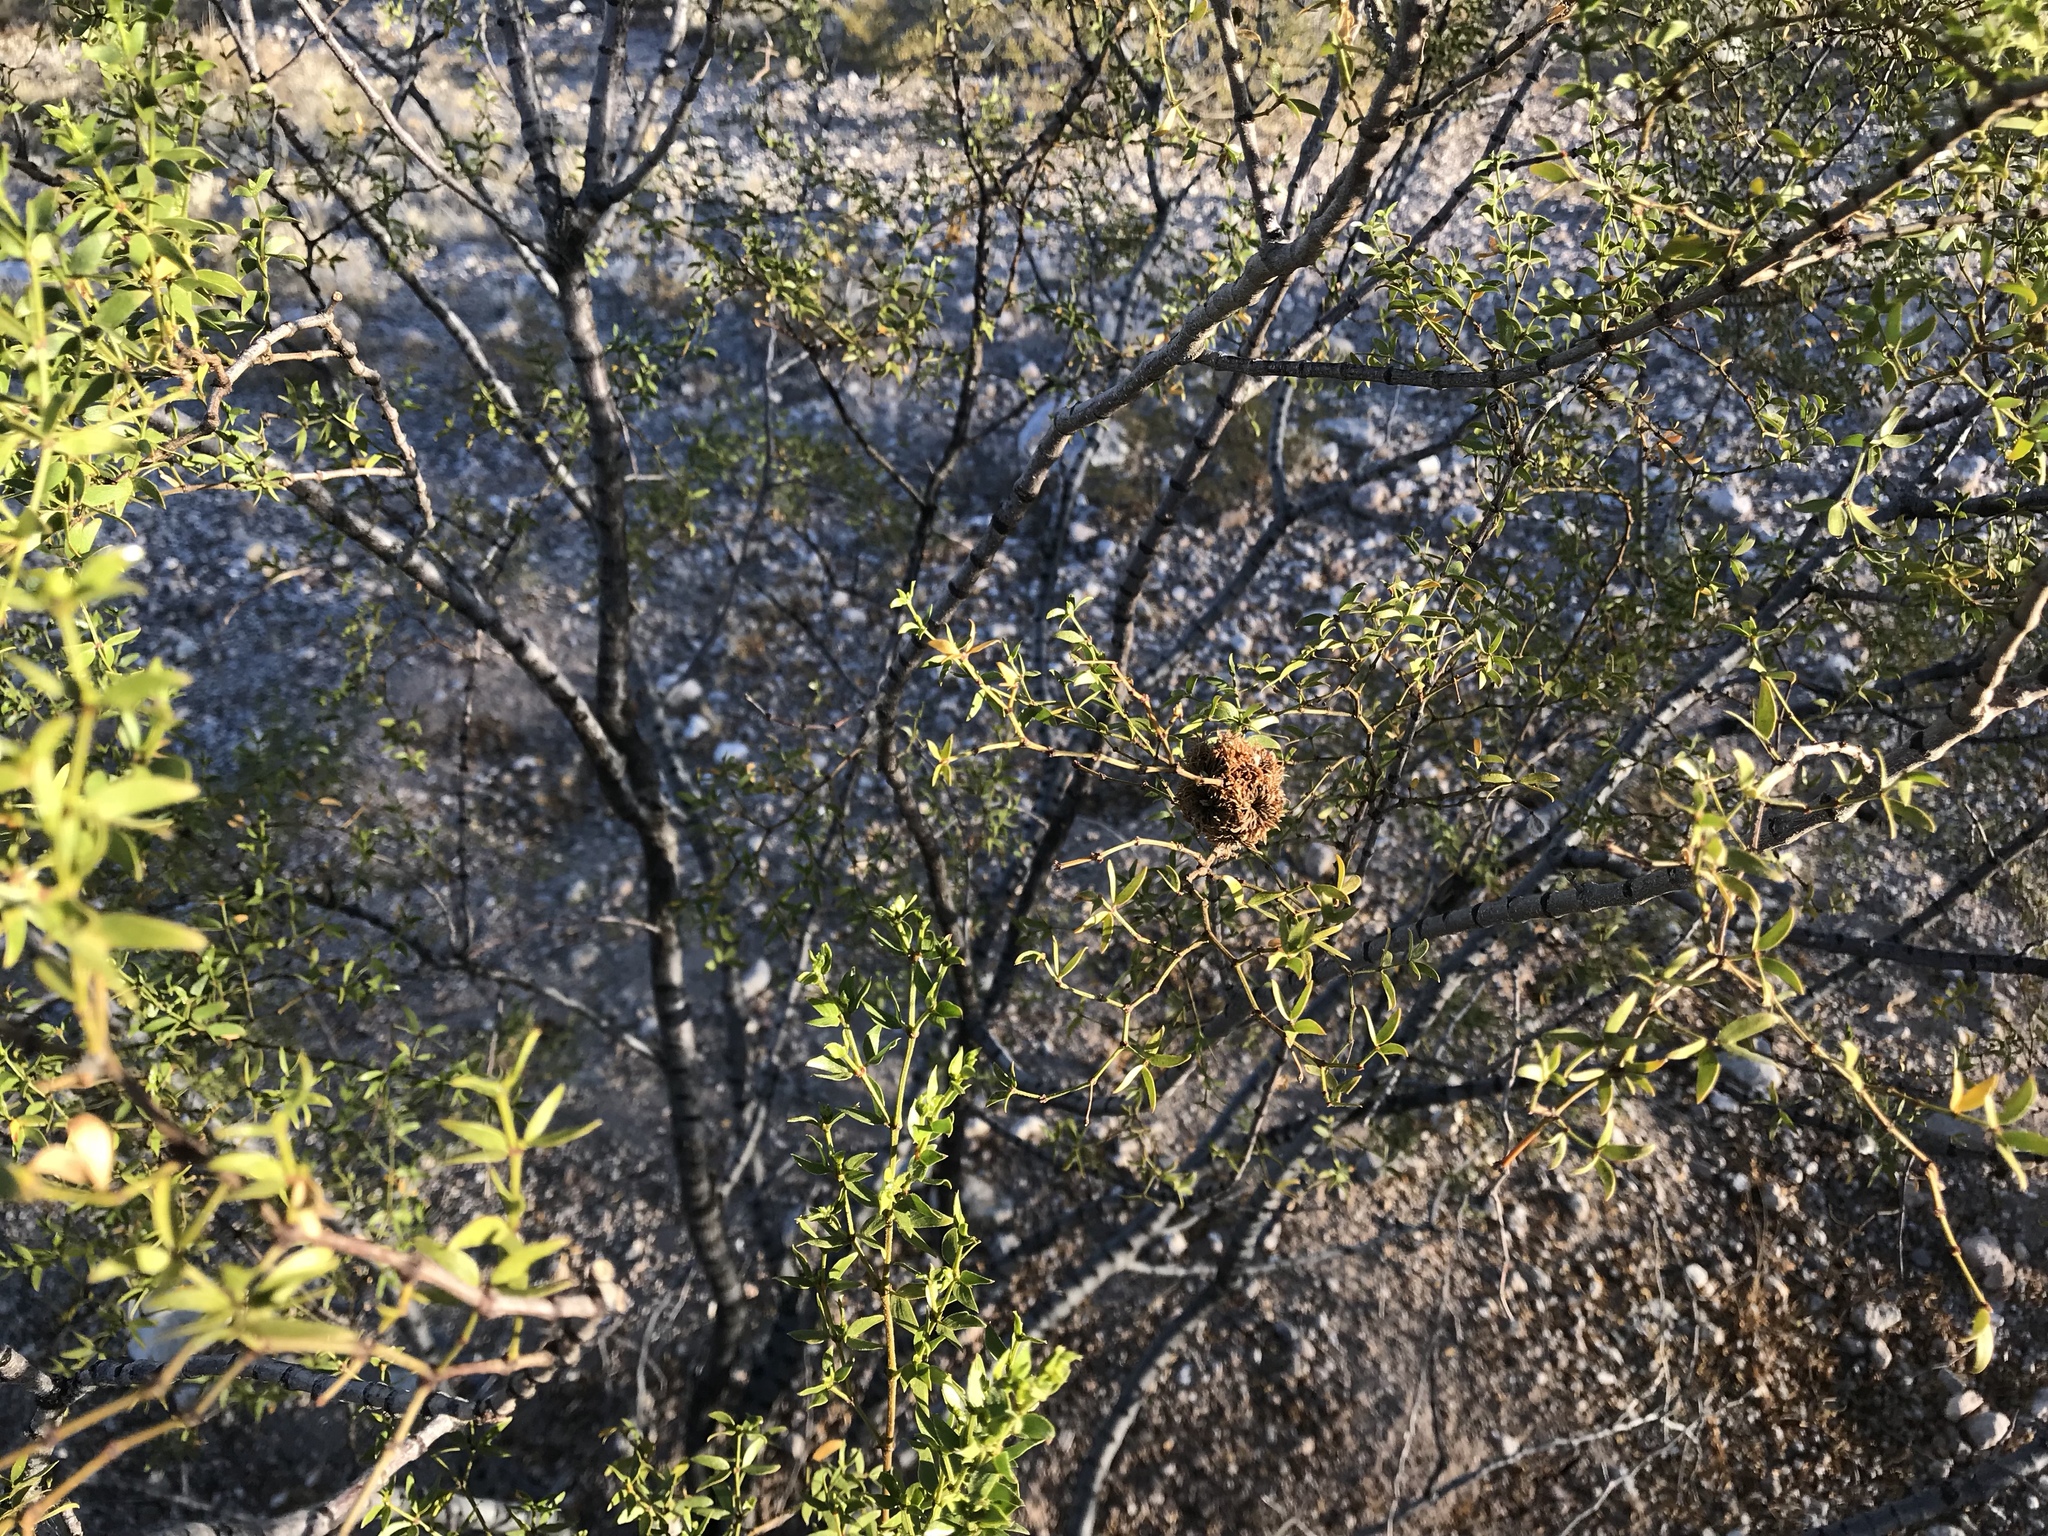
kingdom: Animalia
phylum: Arthropoda
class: Insecta
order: Diptera
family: Cecidomyiidae
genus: Asphondylia
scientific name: Asphondylia auripila
